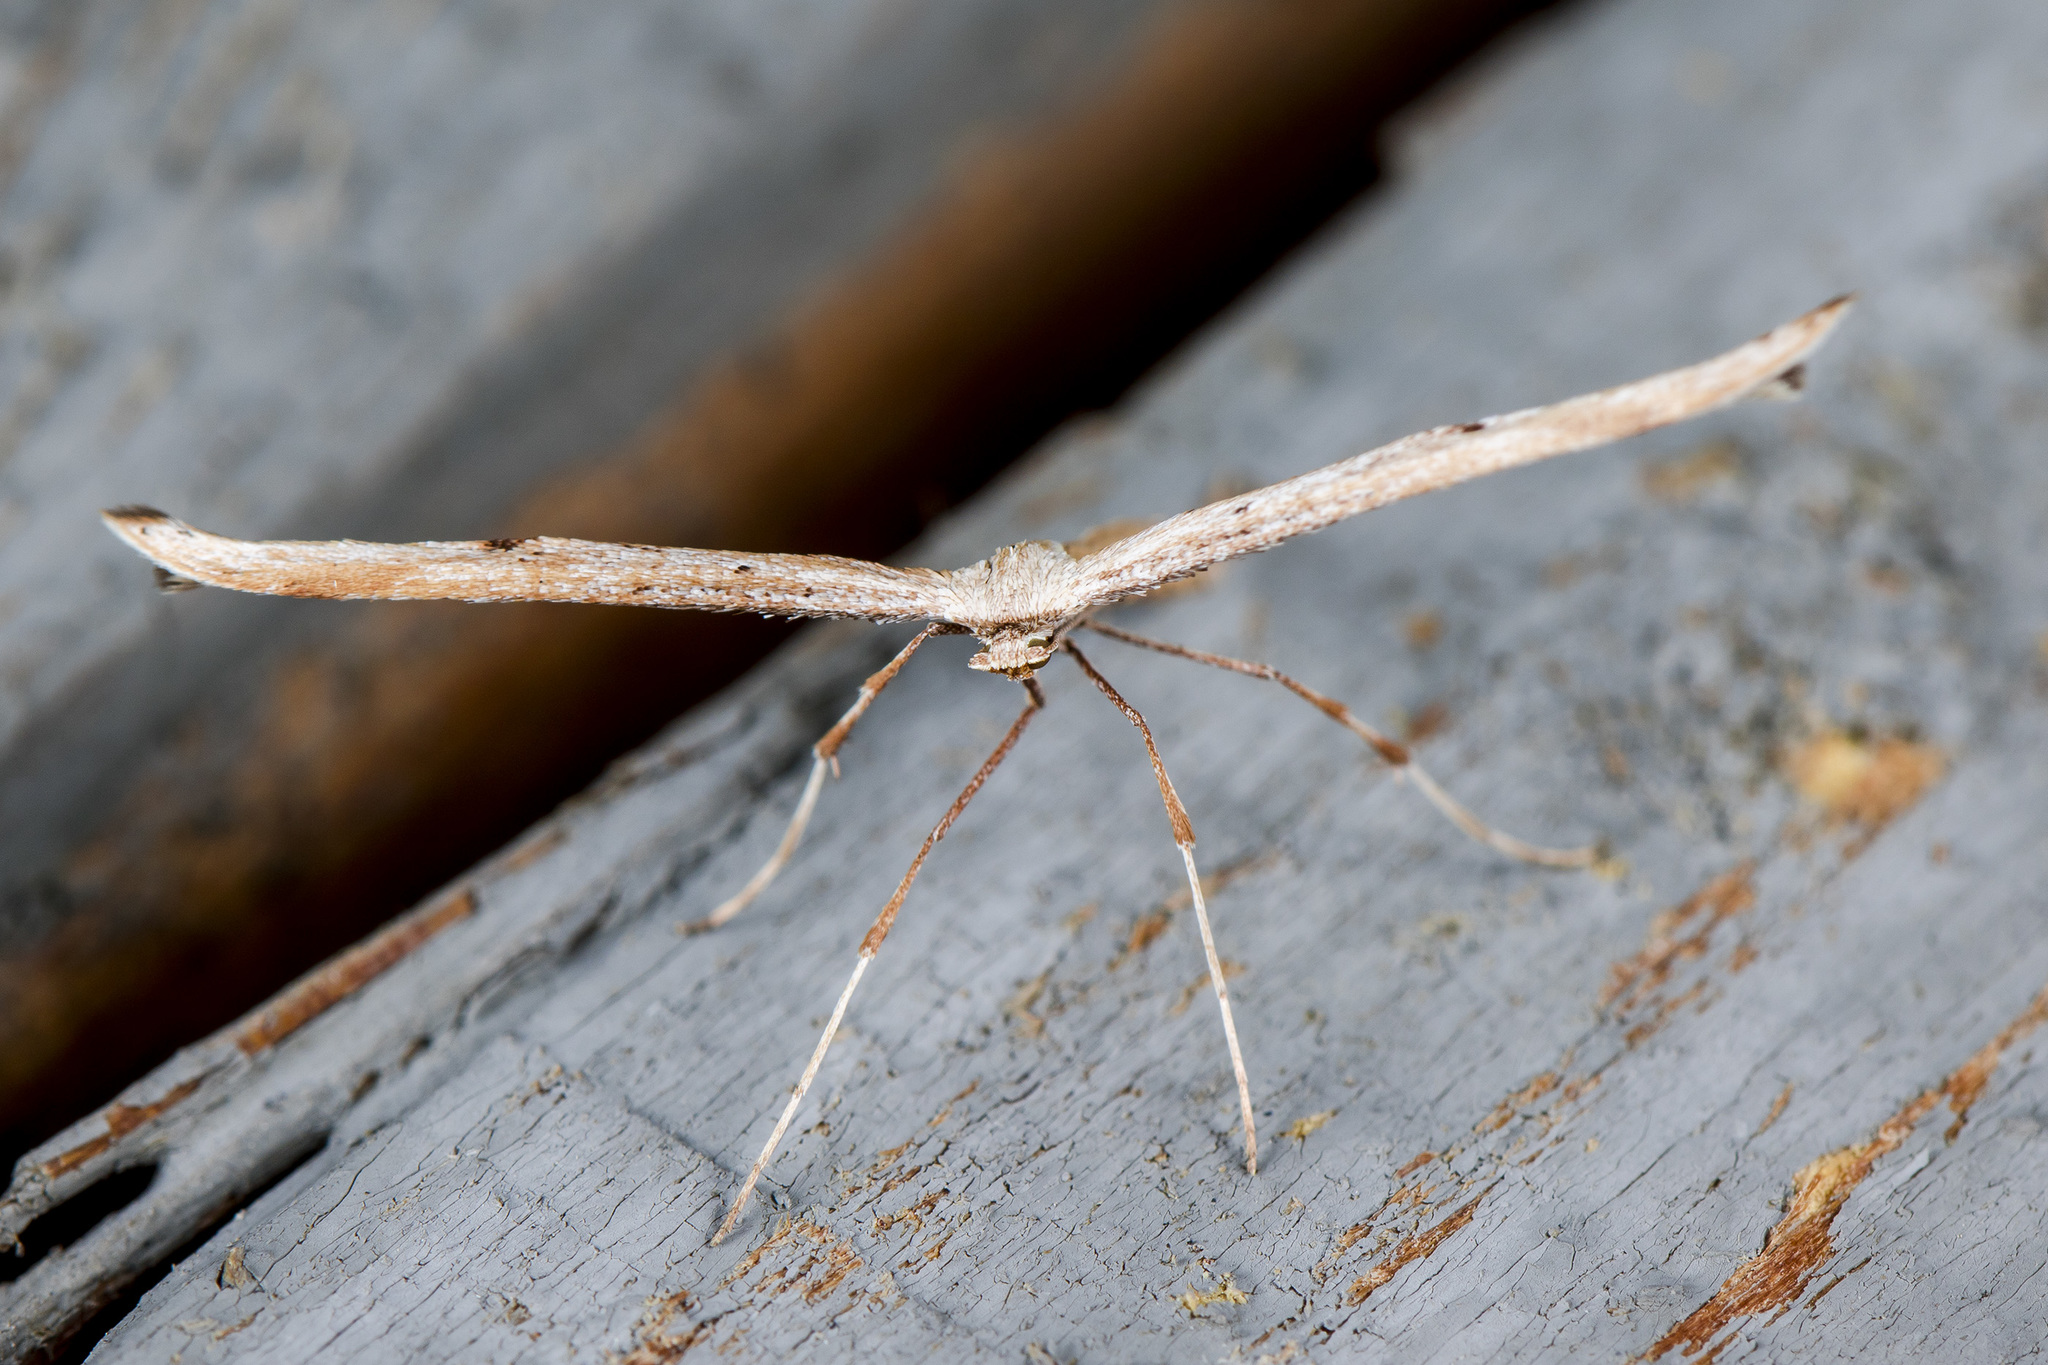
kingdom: Animalia
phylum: Arthropoda
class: Insecta
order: Lepidoptera
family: Pterophoridae
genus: Emmelina
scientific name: Emmelina monodactyla
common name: Common plume
